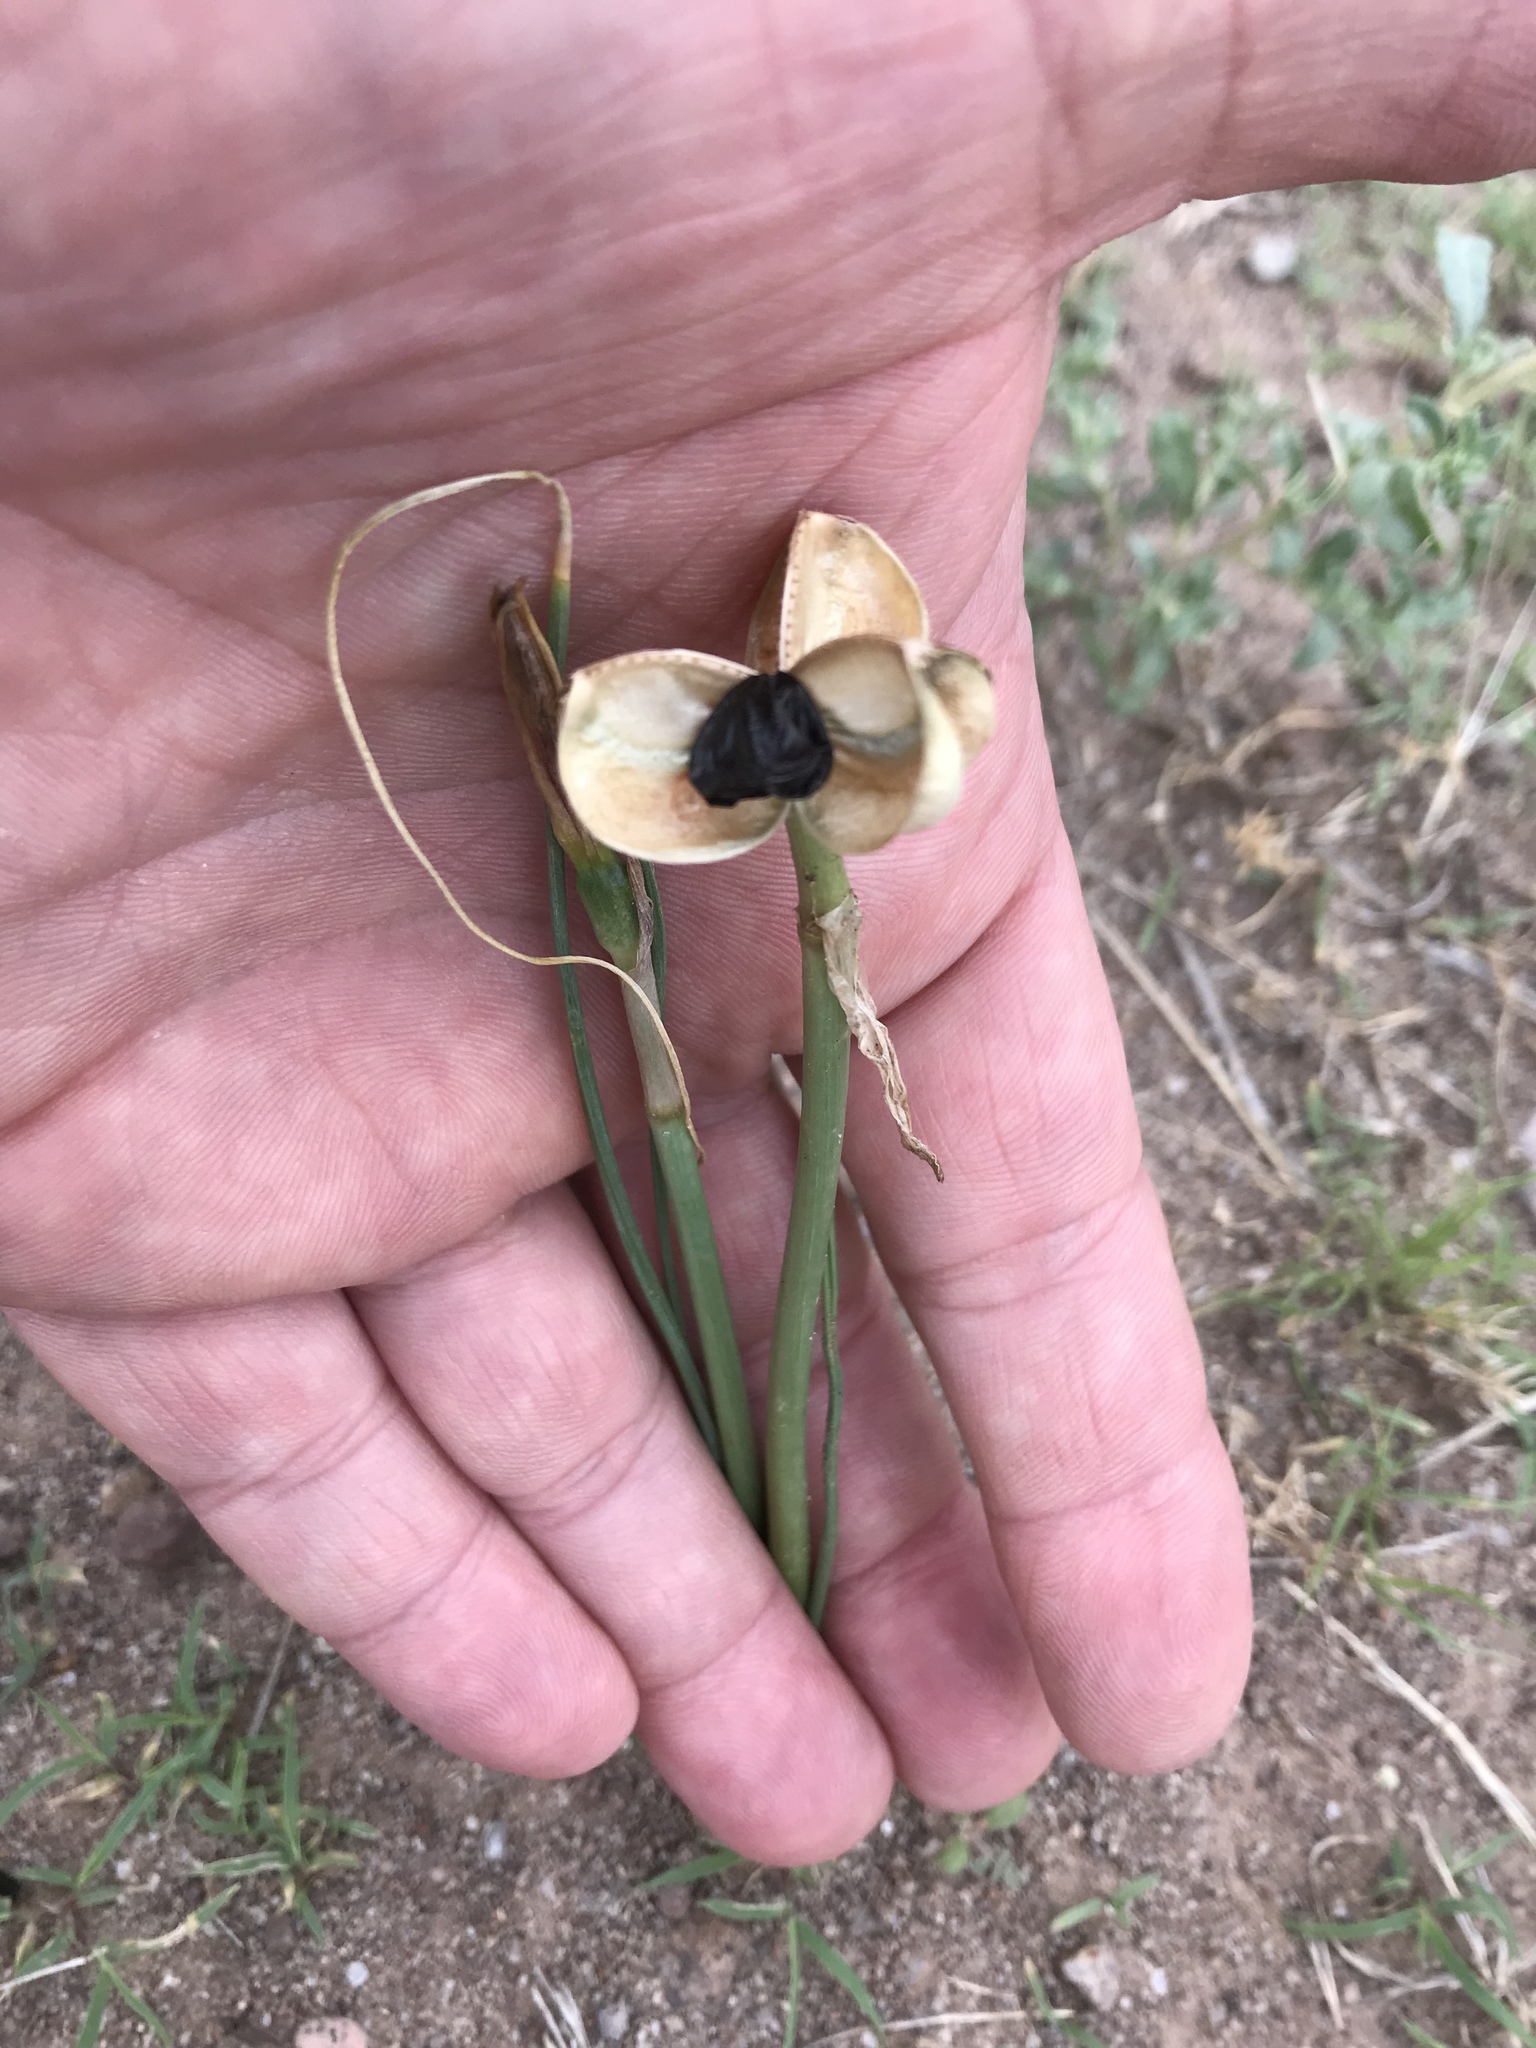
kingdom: Plantae
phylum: Tracheophyta
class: Magnoliopsida
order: Lamiales
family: Plantaginaceae
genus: Penstemon
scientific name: Penstemon fendleri
